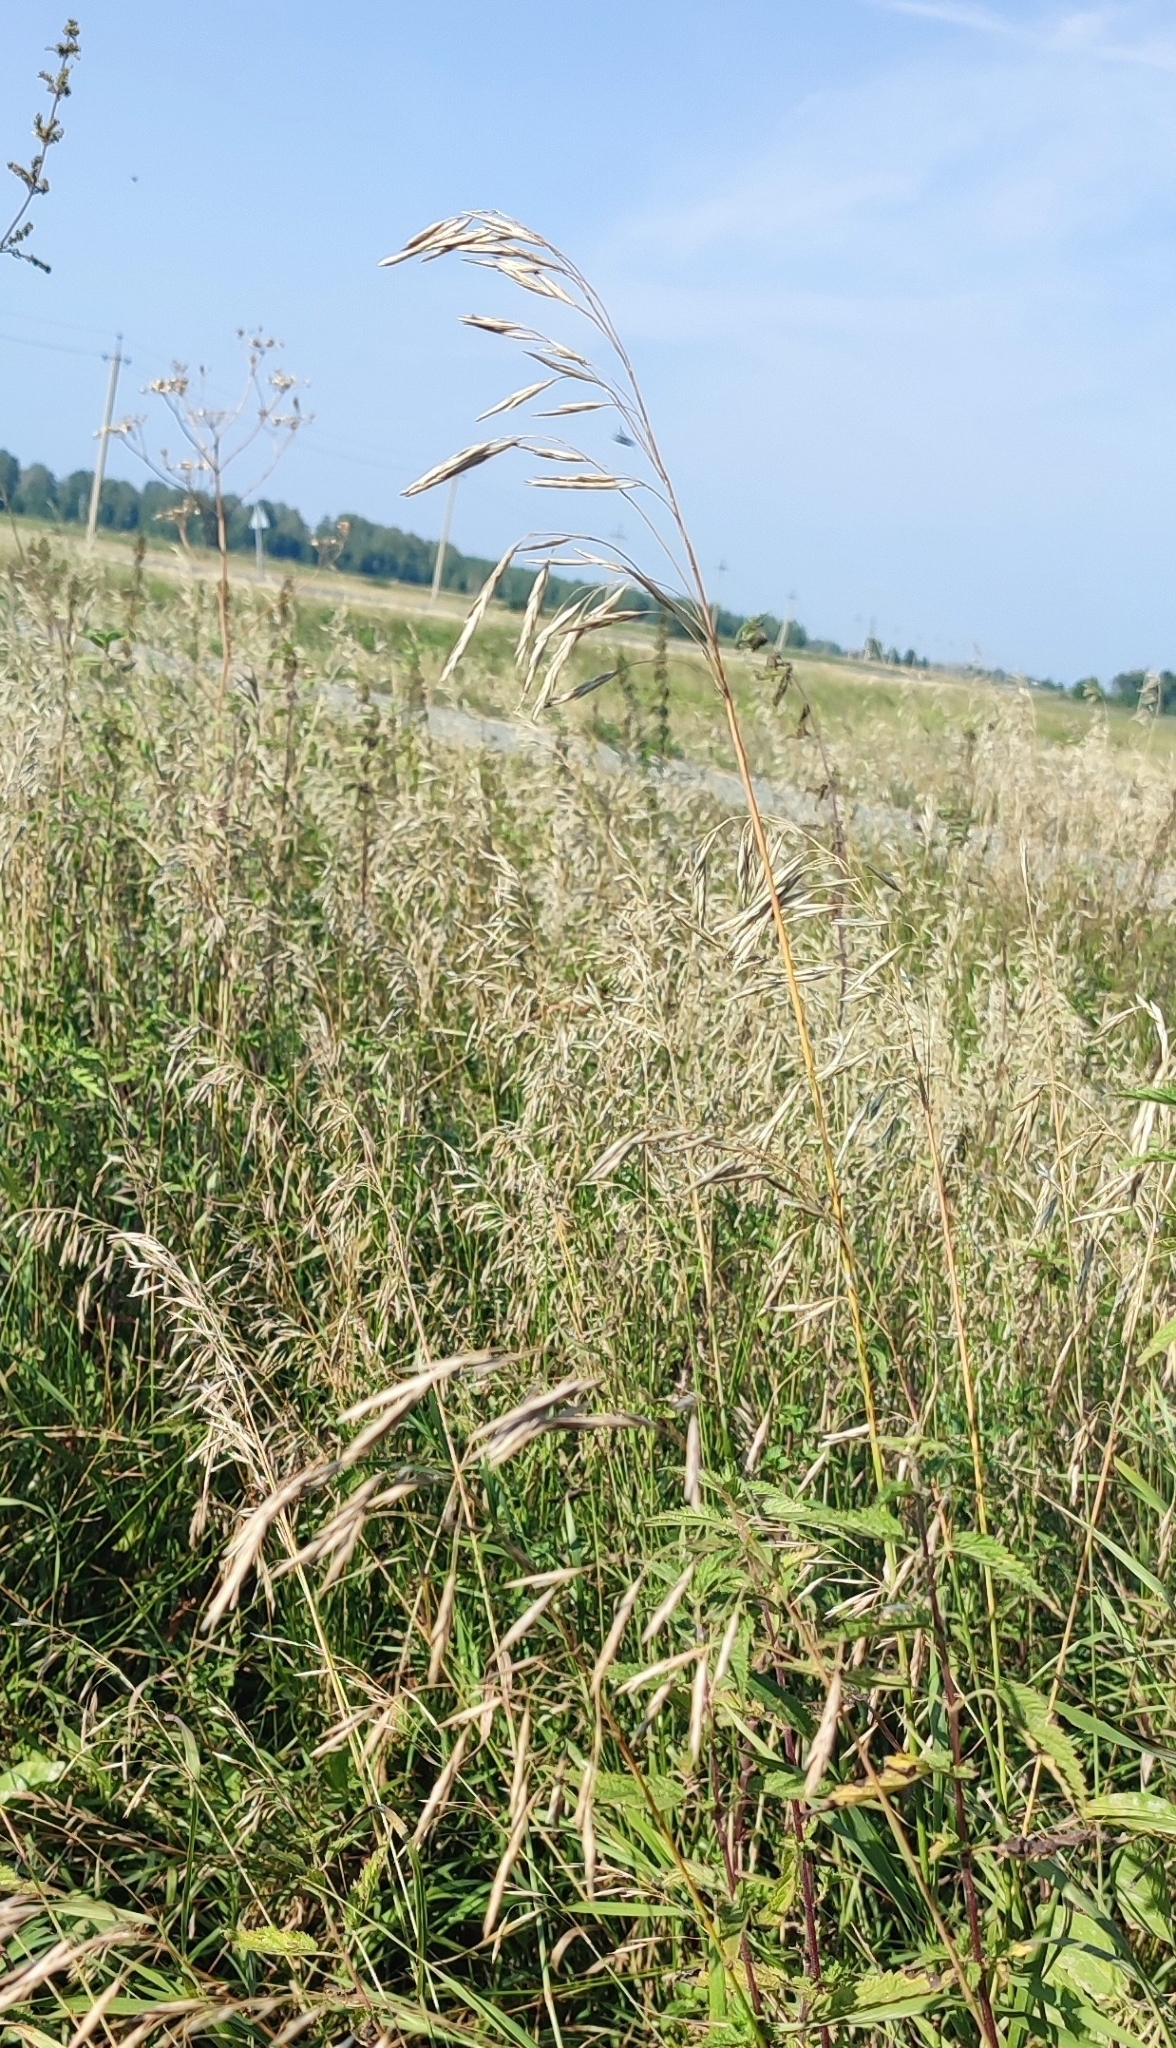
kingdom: Plantae
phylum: Tracheophyta
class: Liliopsida
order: Poales
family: Poaceae
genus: Bromus
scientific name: Bromus inermis
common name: Smooth brome
